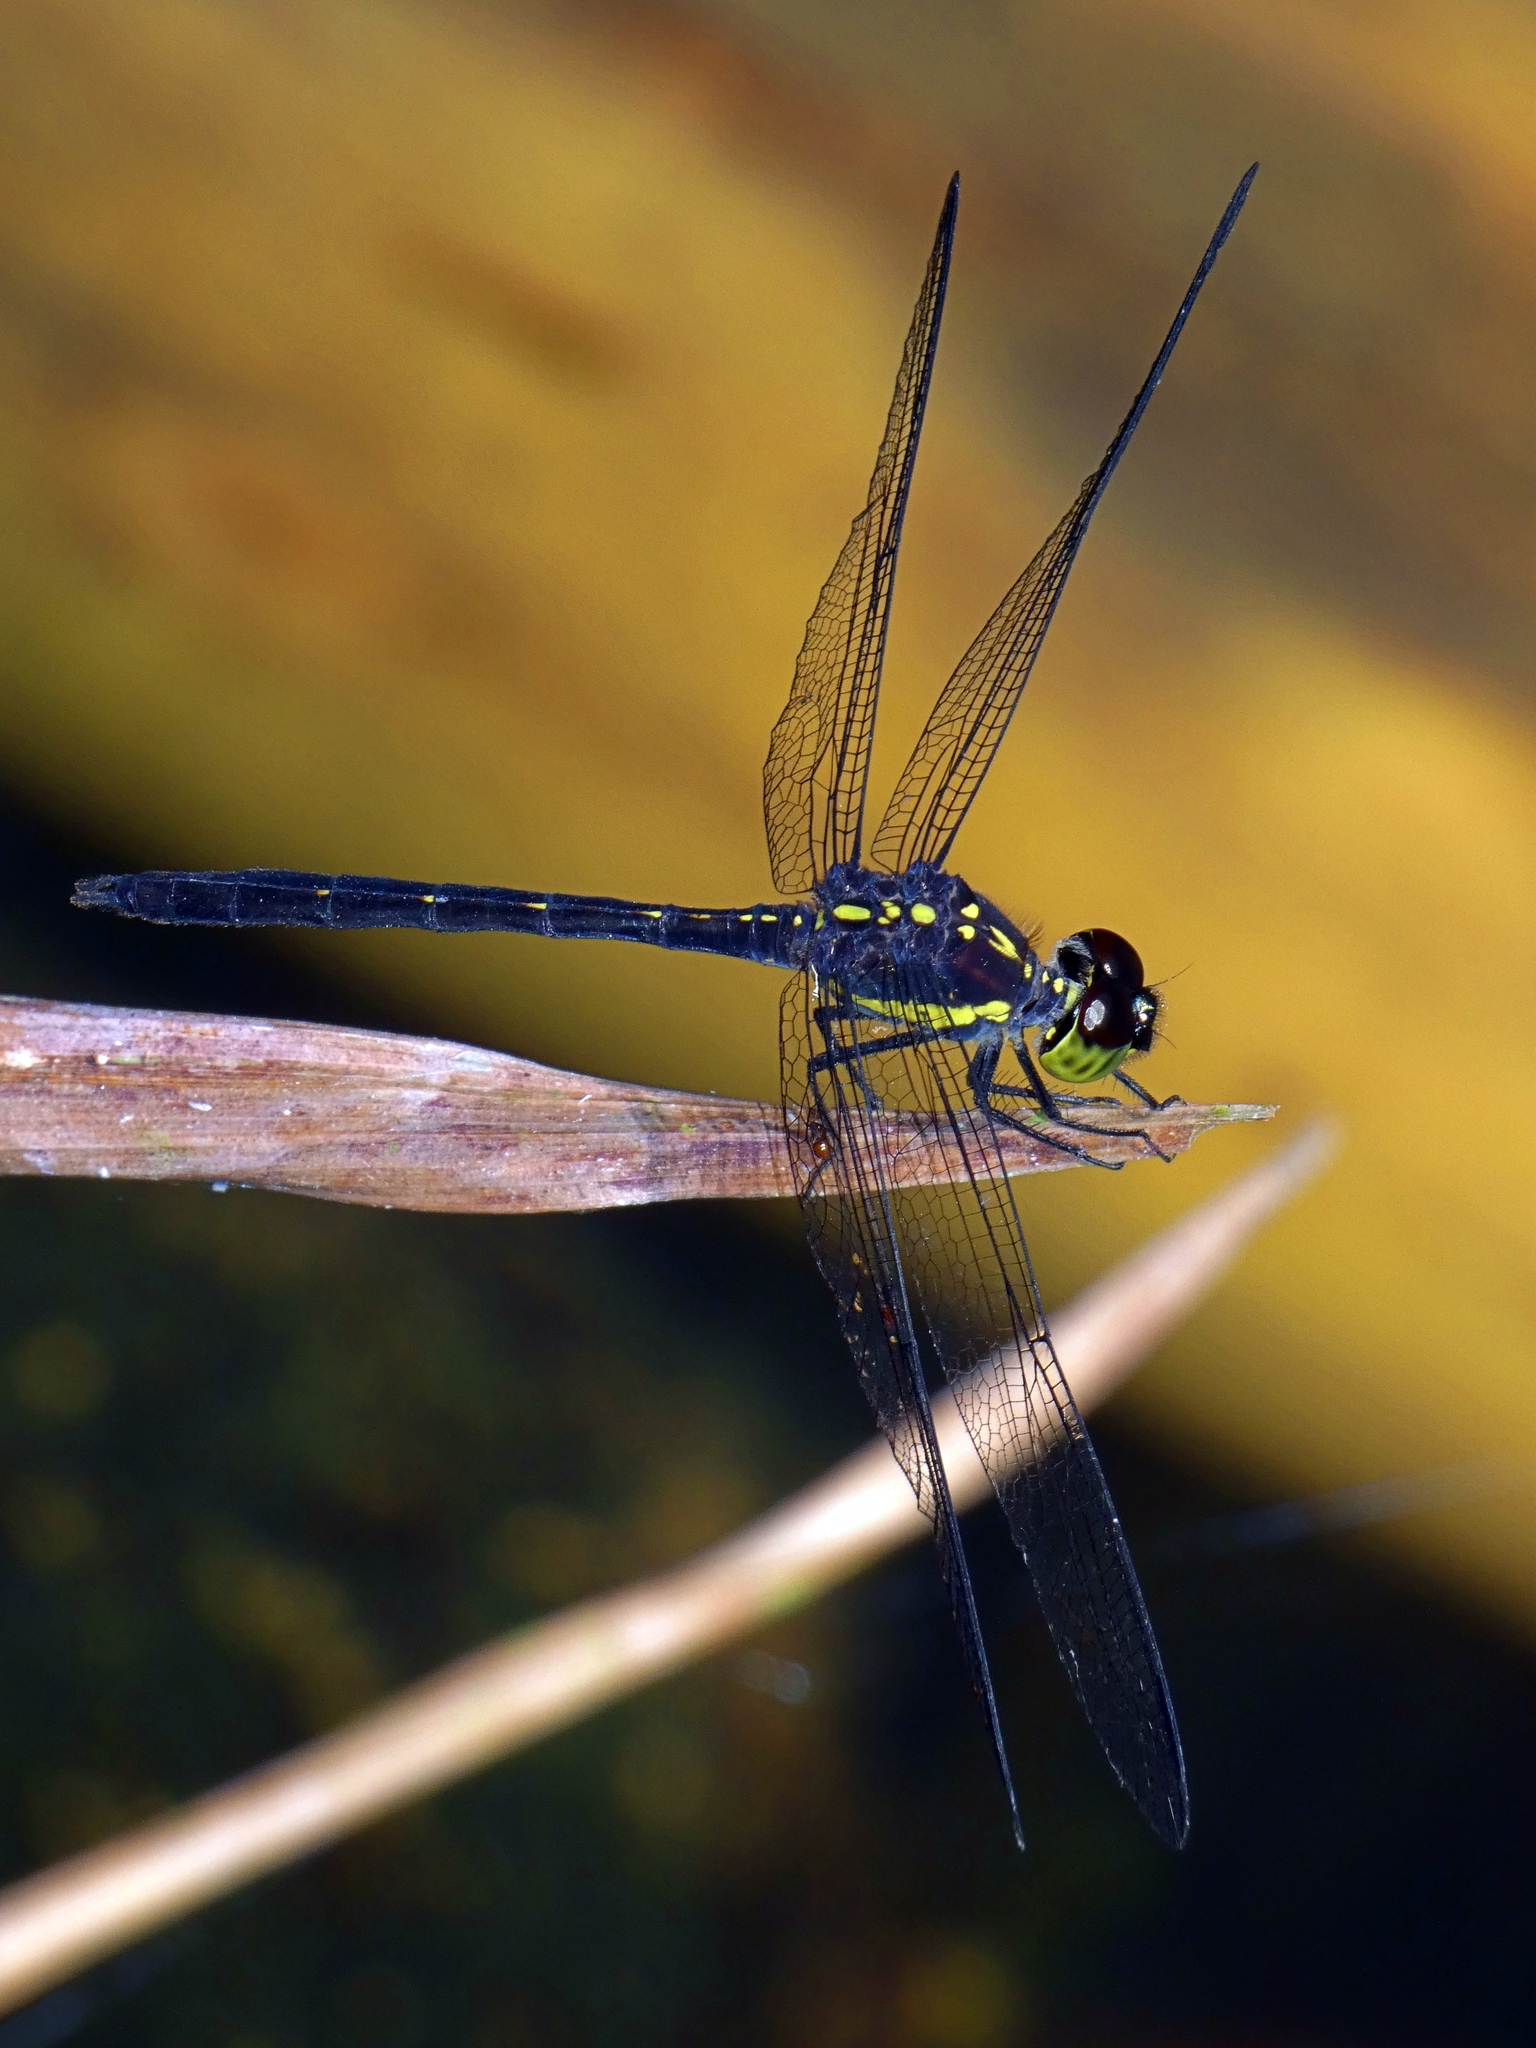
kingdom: Animalia
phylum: Arthropoda
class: Insecta
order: Odonata
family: Libellulidae
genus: Agrionoptera
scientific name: Agrionoptera longitudinalis
